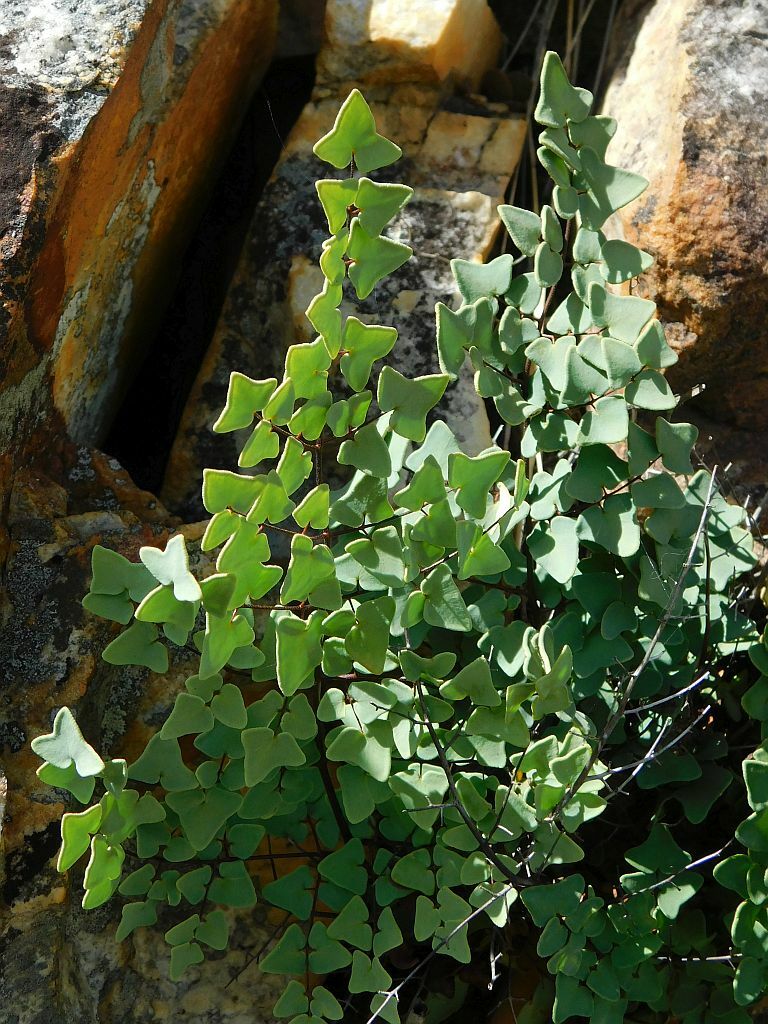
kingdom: Plantae
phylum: Tracheophyta
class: Polypodiopsida
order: Polypodiales
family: Pteridaceae
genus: Pellaea
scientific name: Pellaea calomelanos
